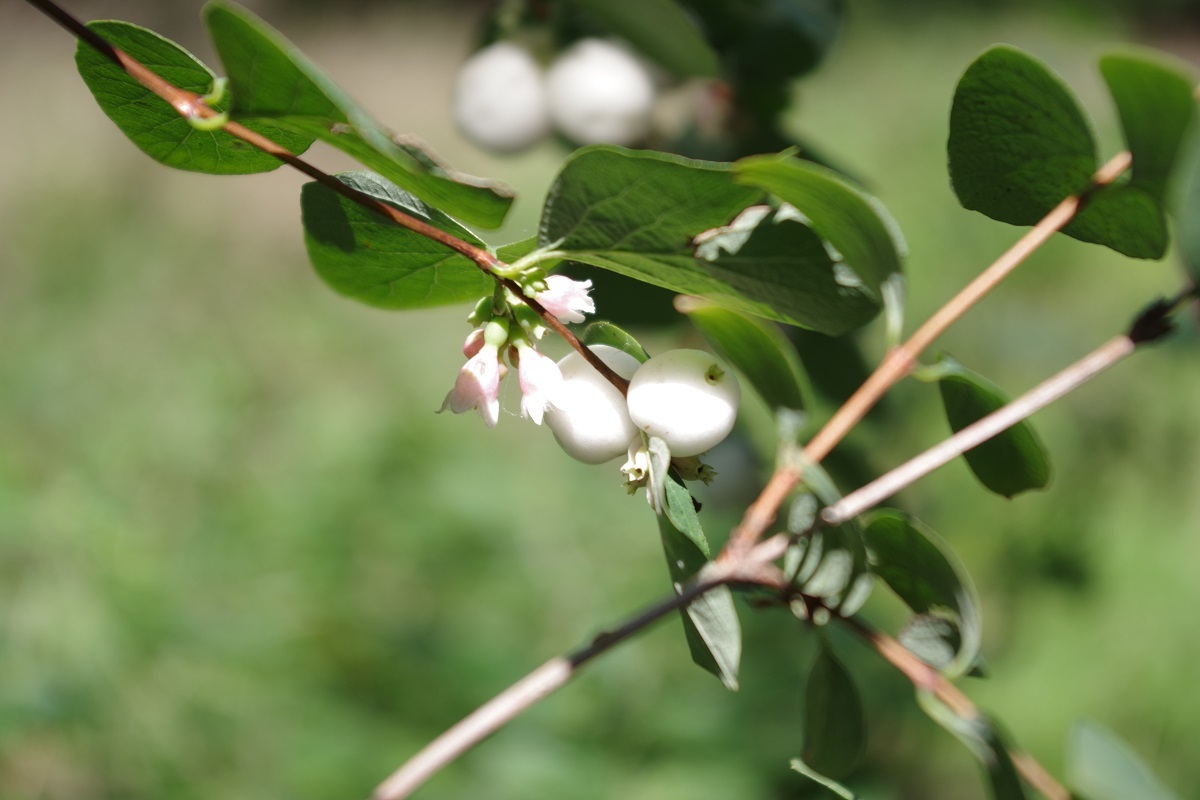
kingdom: Plantae
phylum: Tracheophyta
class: Magnoliopsida
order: Dipsacales
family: Caprifoliaceae
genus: Symphoricarpos
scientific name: Symphoricarpos albus
